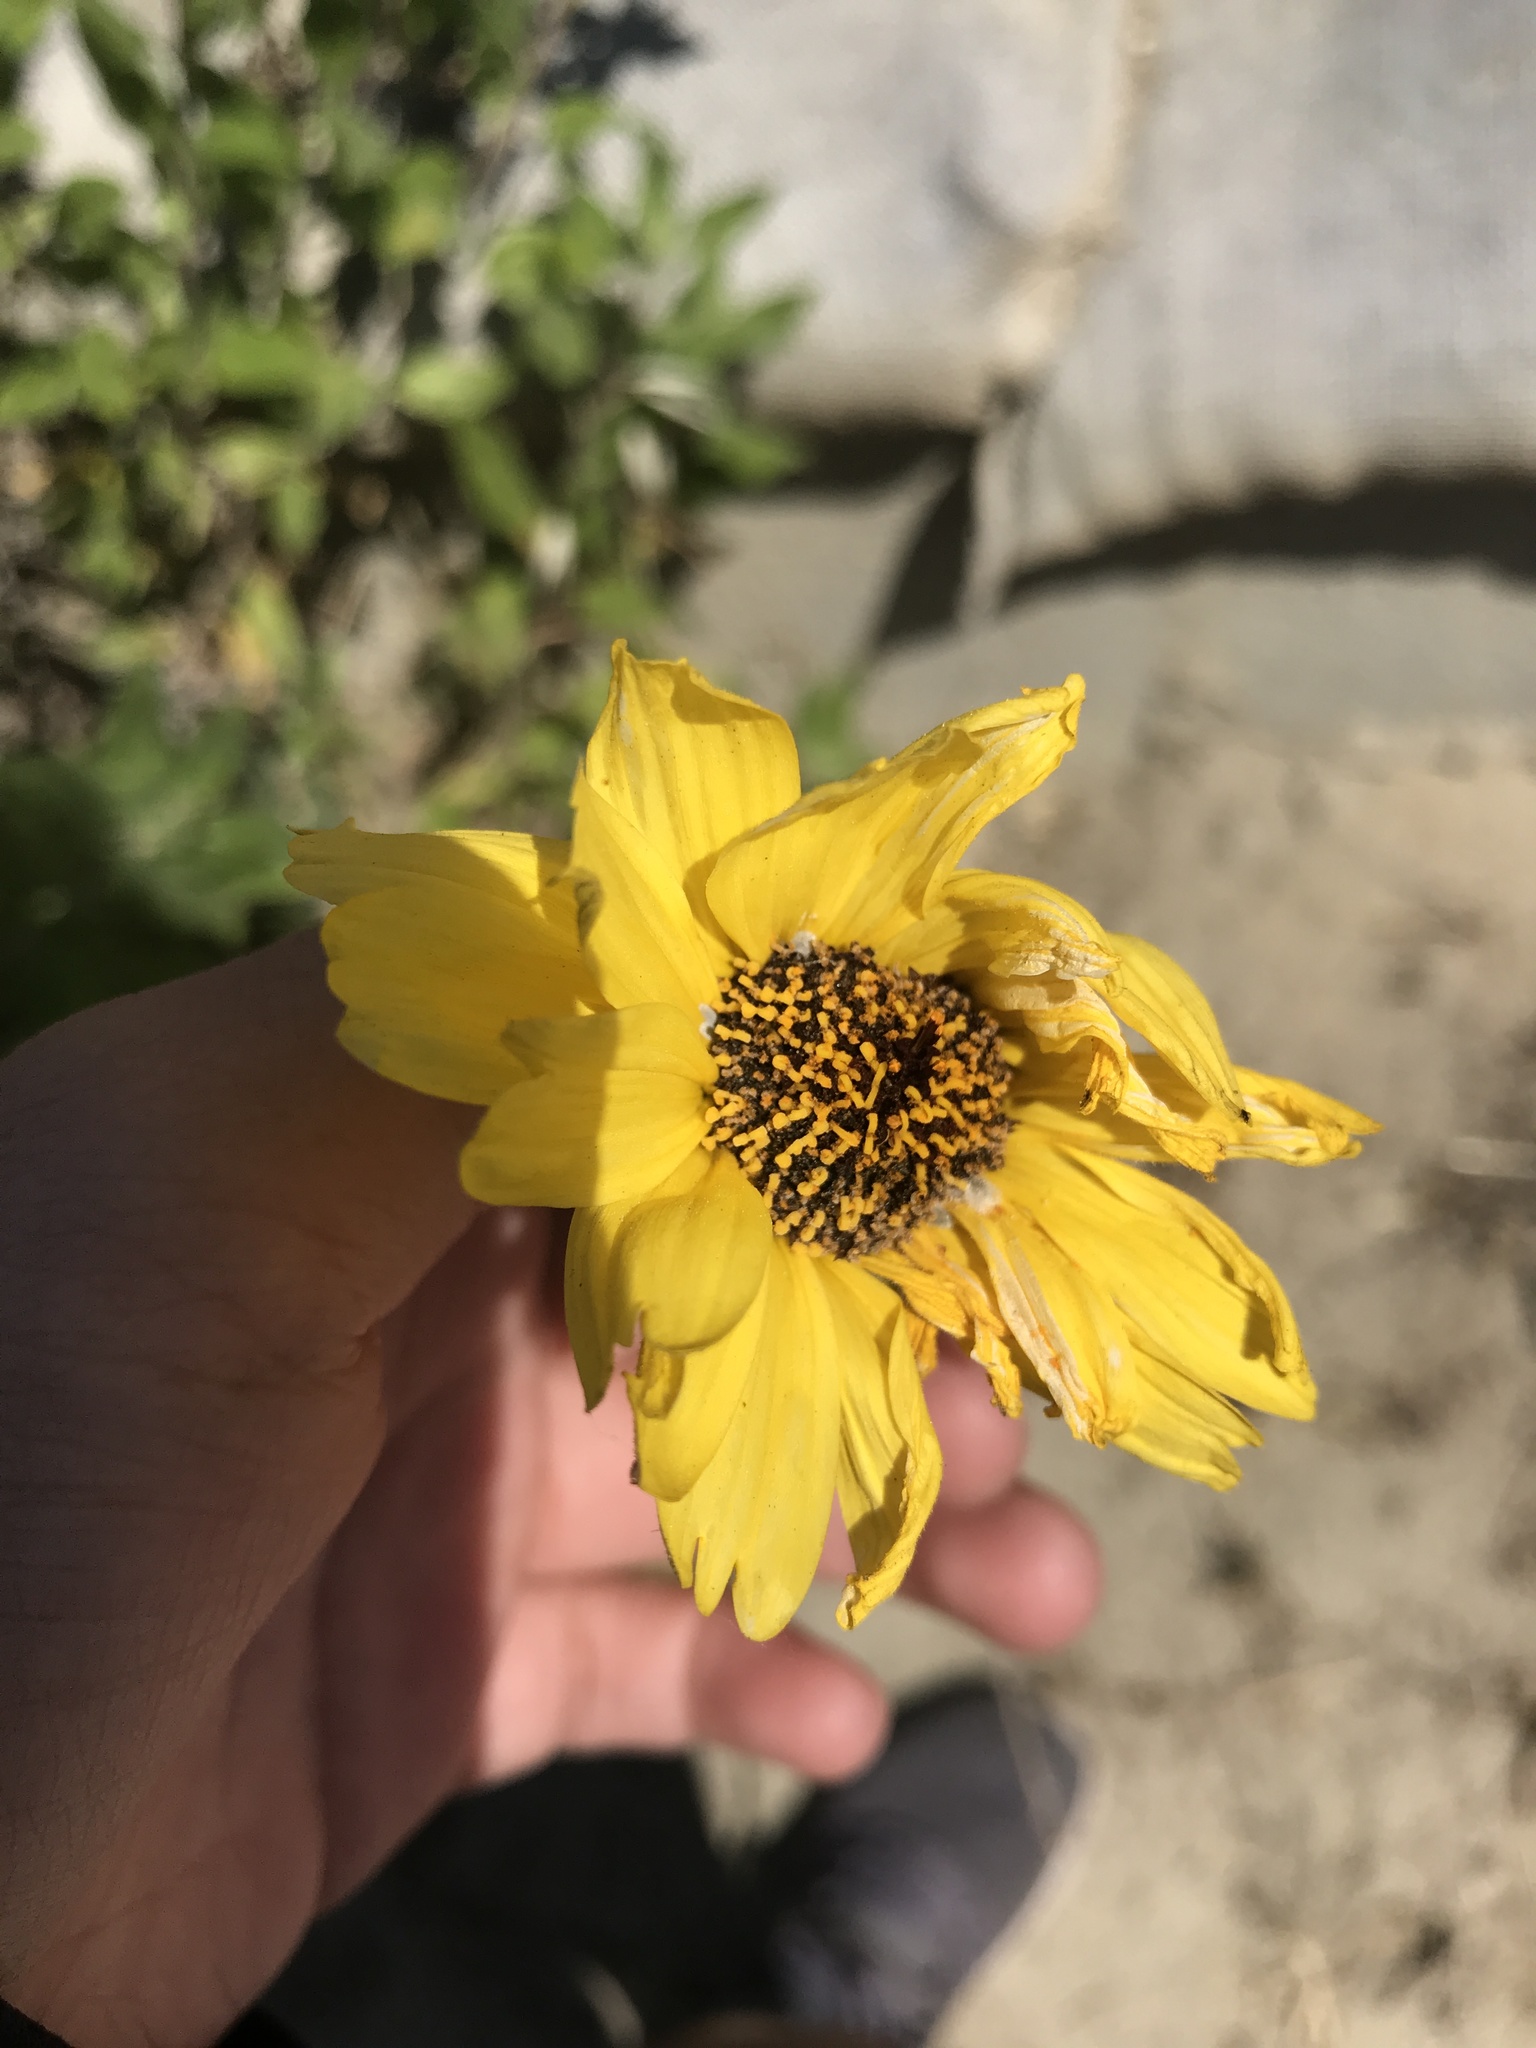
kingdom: Plantae
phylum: Tracheophyta
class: Magnoliopsida
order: Asterales
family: Asteraceae
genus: Encelia
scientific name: Encelia californica
